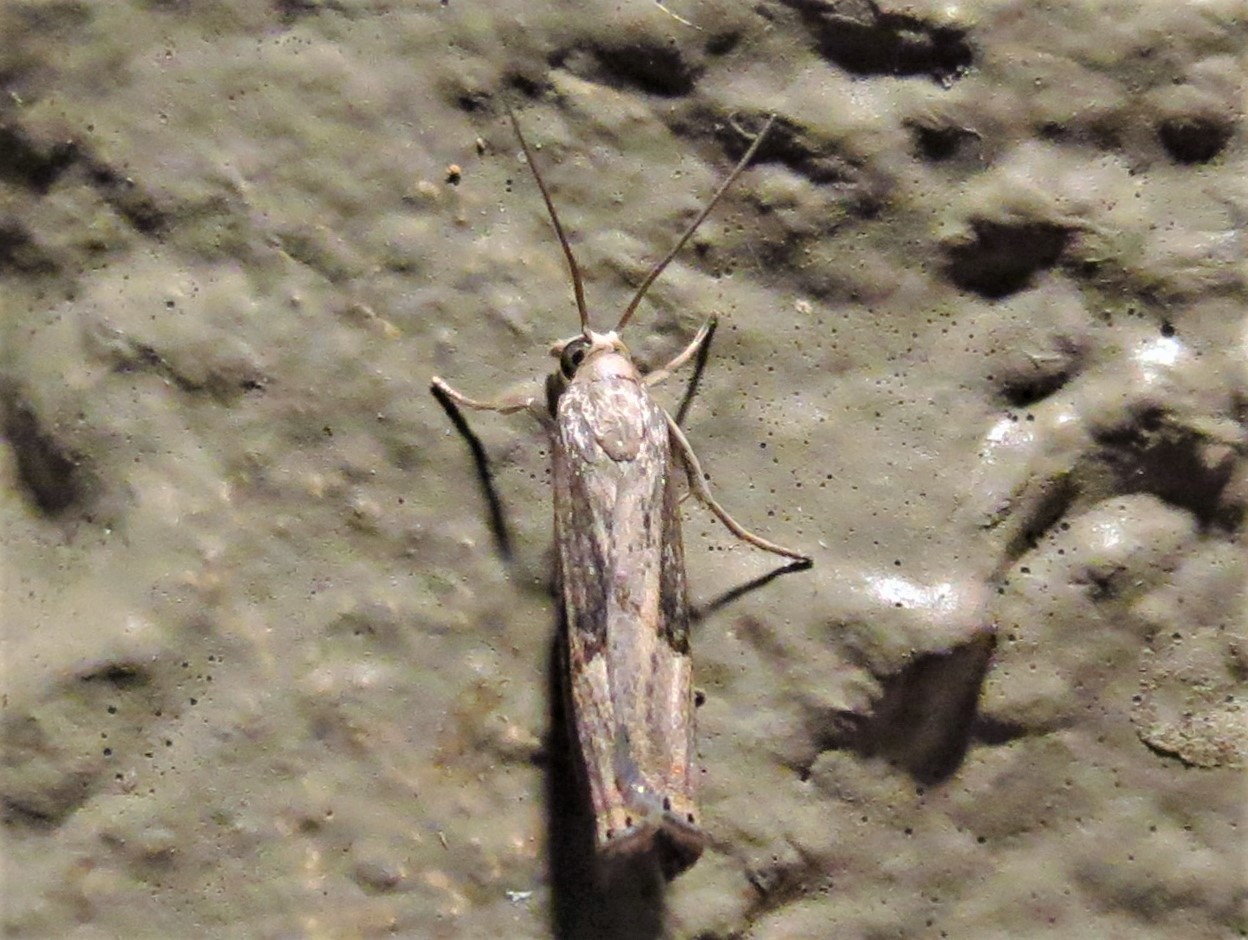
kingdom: Animalia
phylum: Arthropoda
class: Insecta
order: Lepidoptera
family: Crambidae
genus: Parapediasia
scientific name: Parapediasia teterellus
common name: Bluegrass webworm moth
